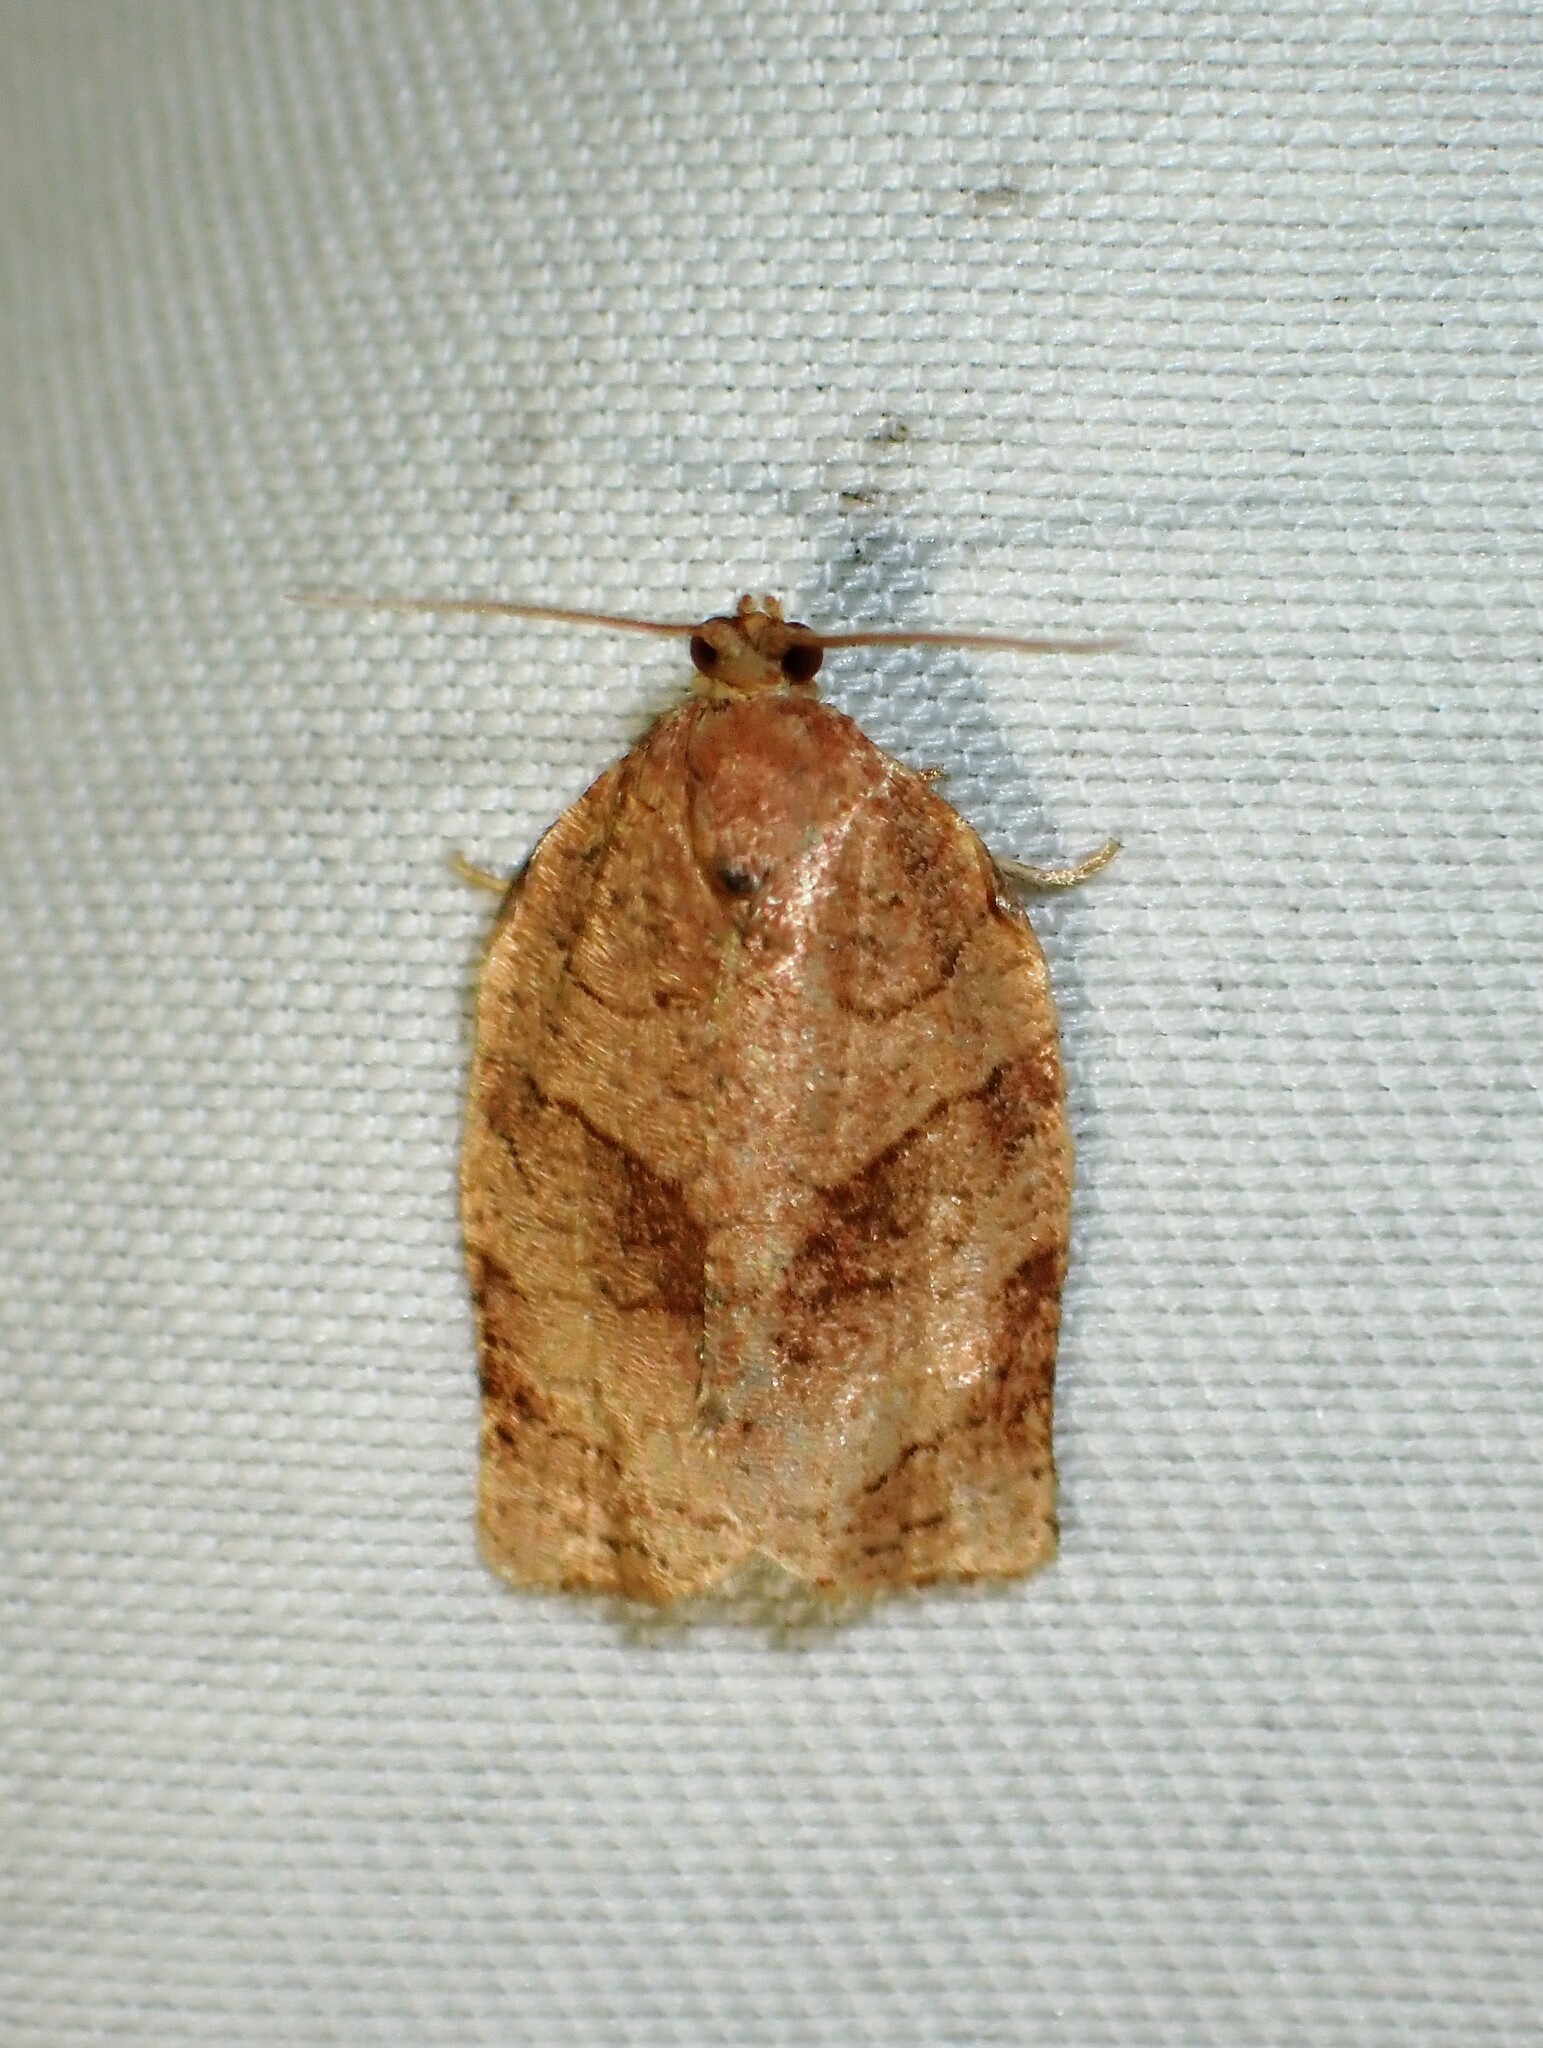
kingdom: Animalia
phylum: Arthropoda
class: Insecta
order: Lepidoptera
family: Tortricidae
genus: Choristoneura
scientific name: Choristoneura rosaceana
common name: Oblique-banded leafroller moth
